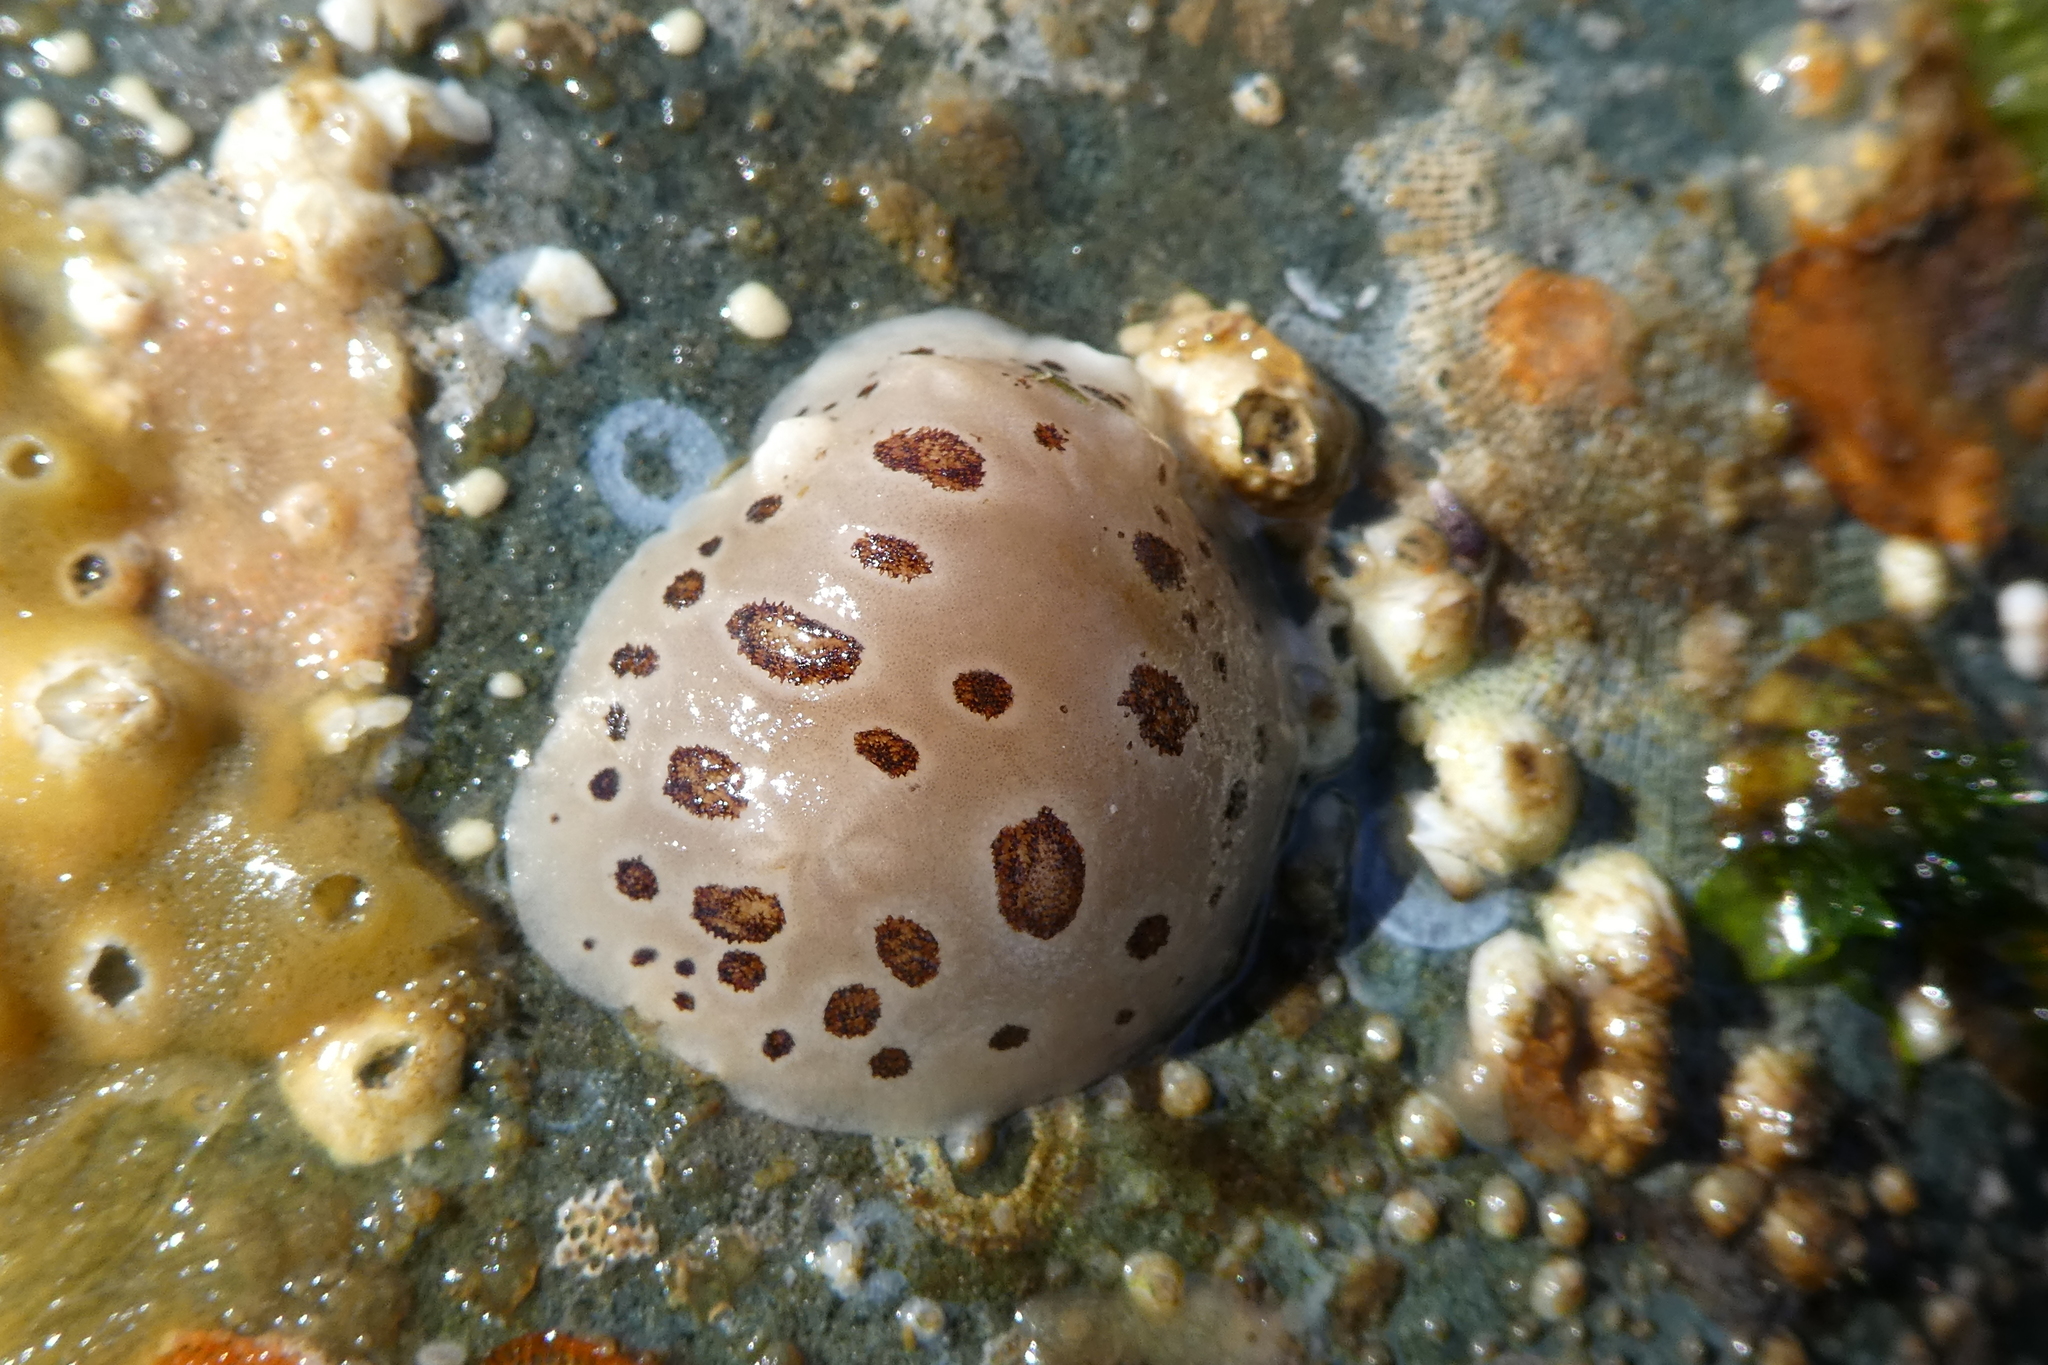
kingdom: Animalia
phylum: Mollusca
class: Gastropoda
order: Nudibranchia
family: Discodorididae
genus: Diaulula
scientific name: Diaulula odonoghuei
